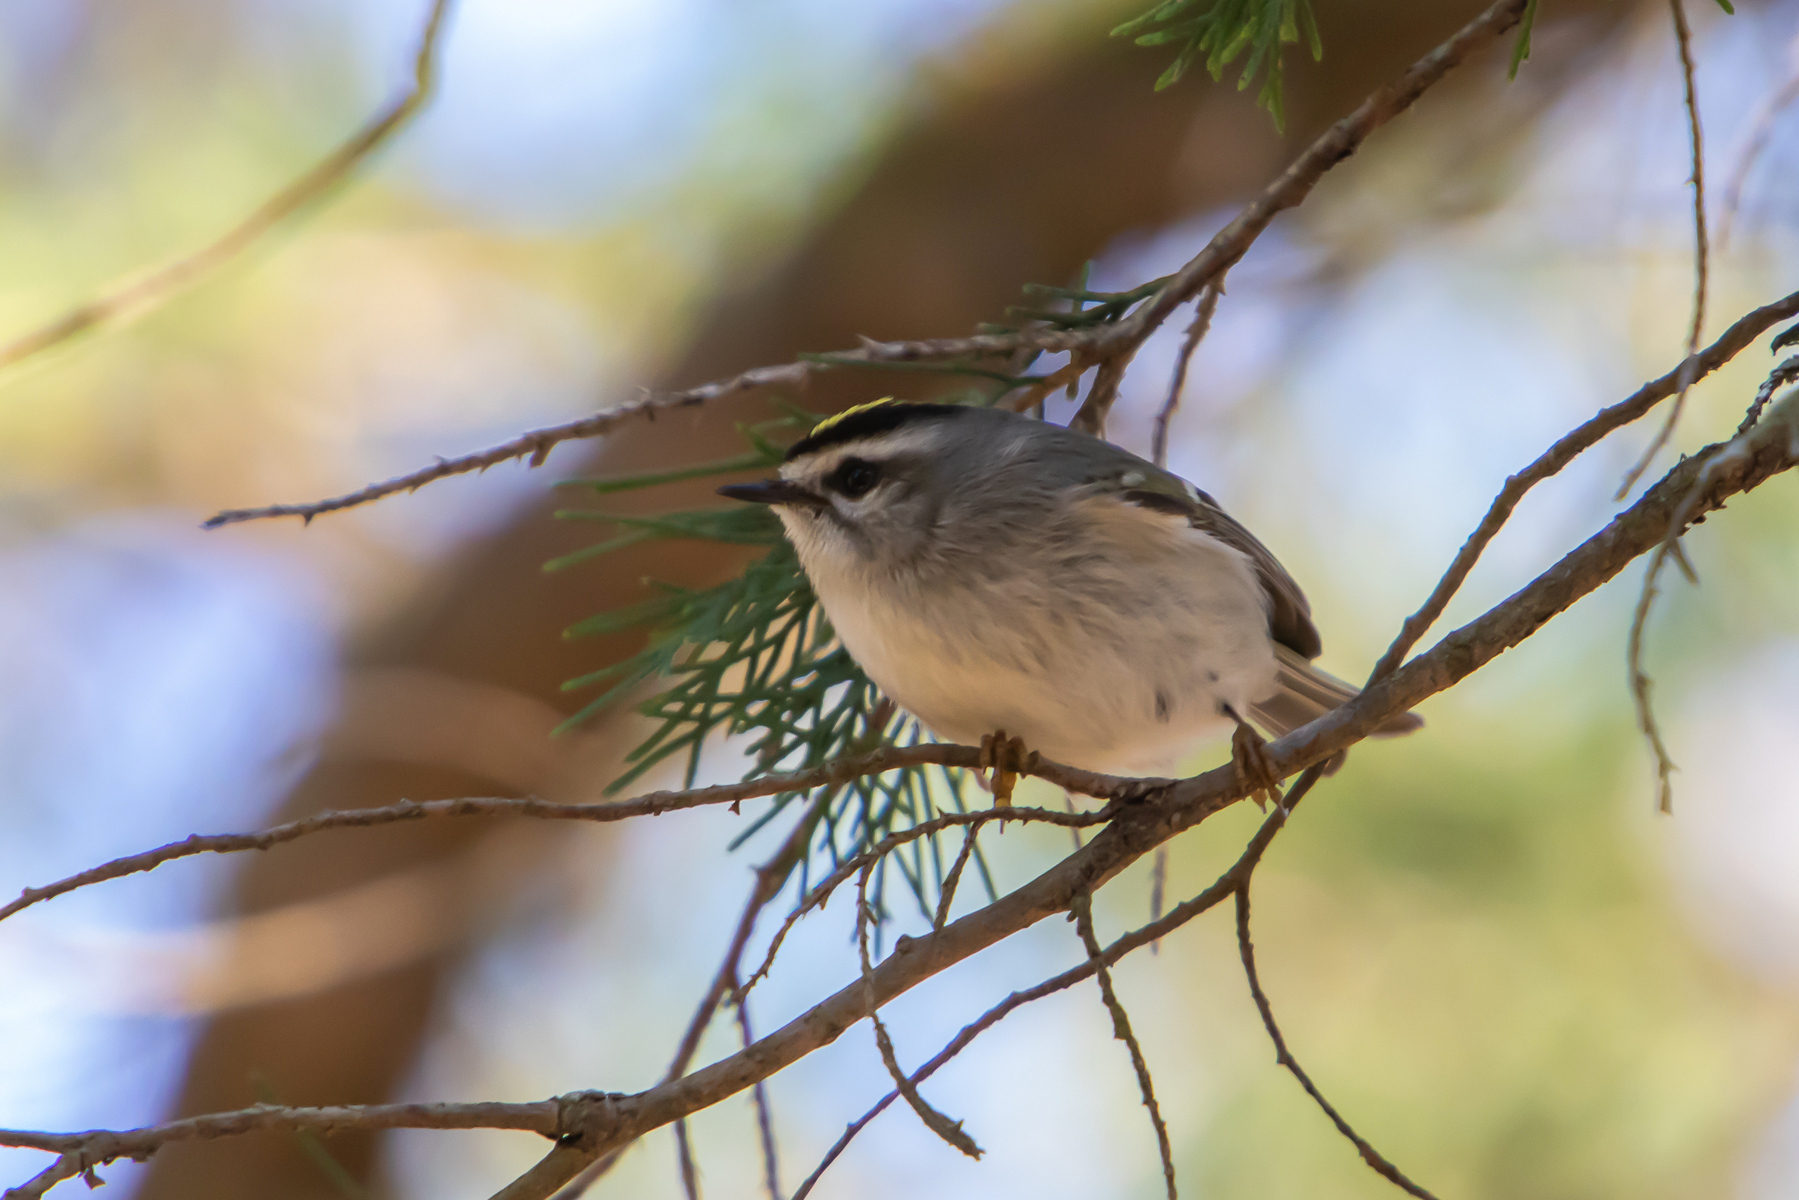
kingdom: Animalia
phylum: Chordata
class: Aves
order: Passeriformes
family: Regulidae
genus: Regulus
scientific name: Regulus satrapa
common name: Golden-crowned kinglet
